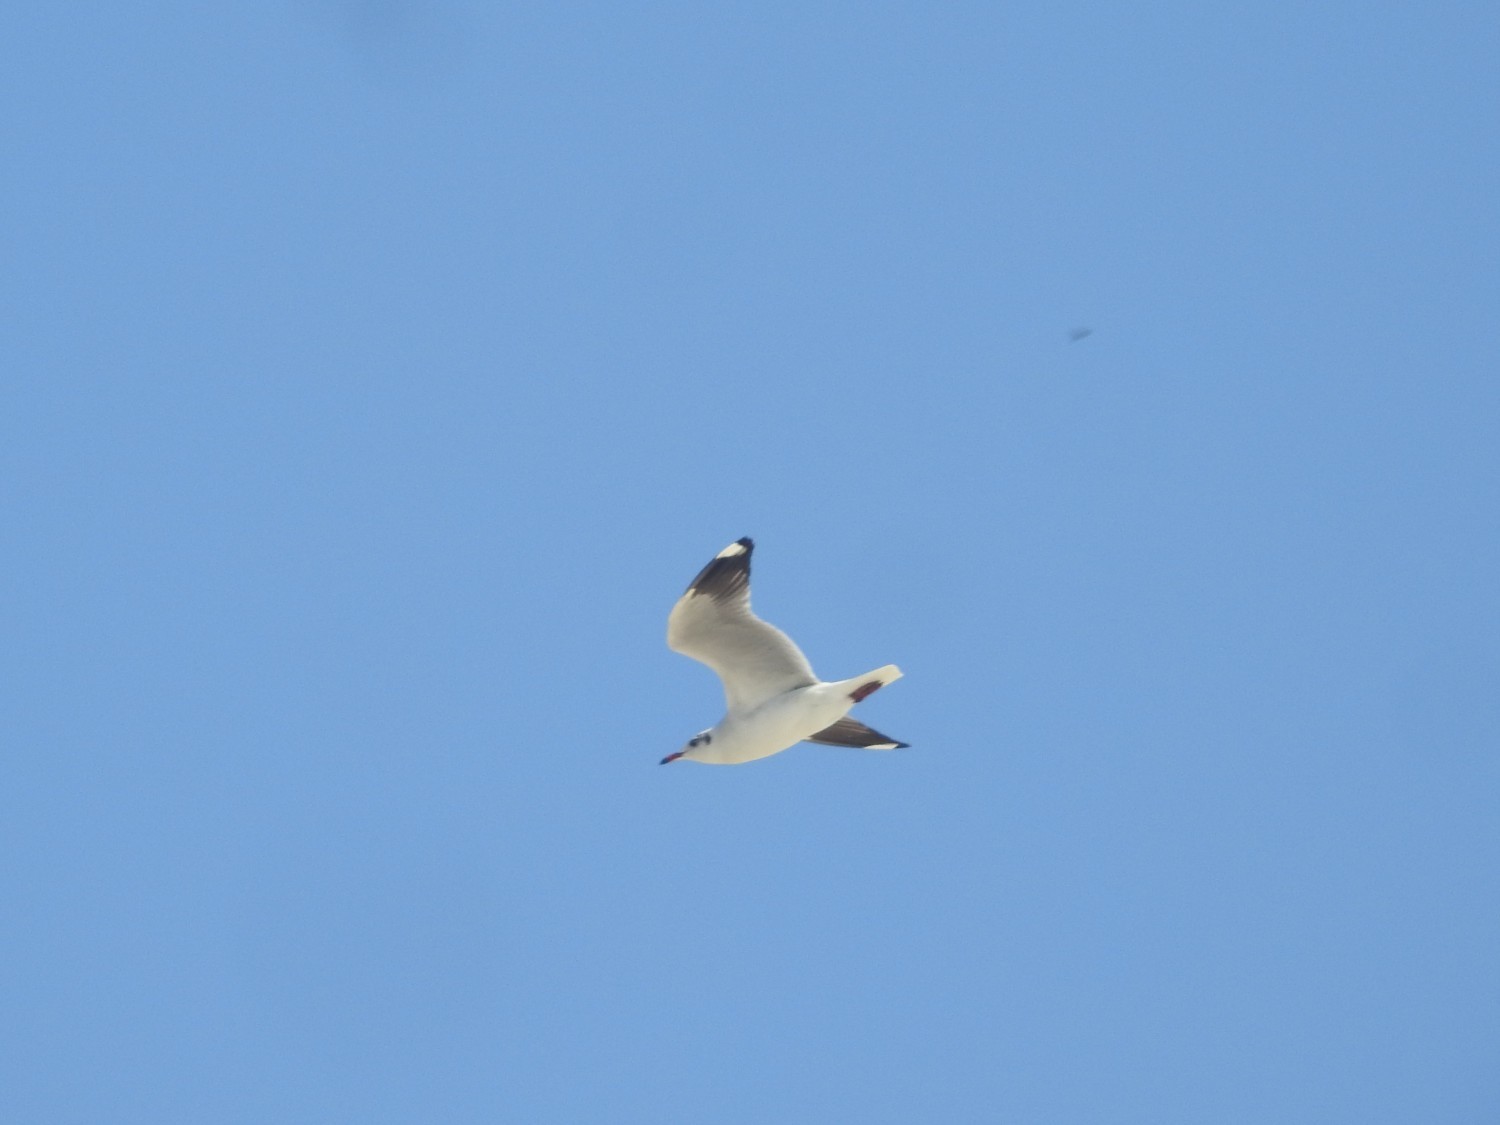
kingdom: Animalia
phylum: Chordata
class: Aves
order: Charadriiformes
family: Laridae
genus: Chroicocephalus
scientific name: Chroicocephalus brunnicephalus
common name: Brown-headed gull
